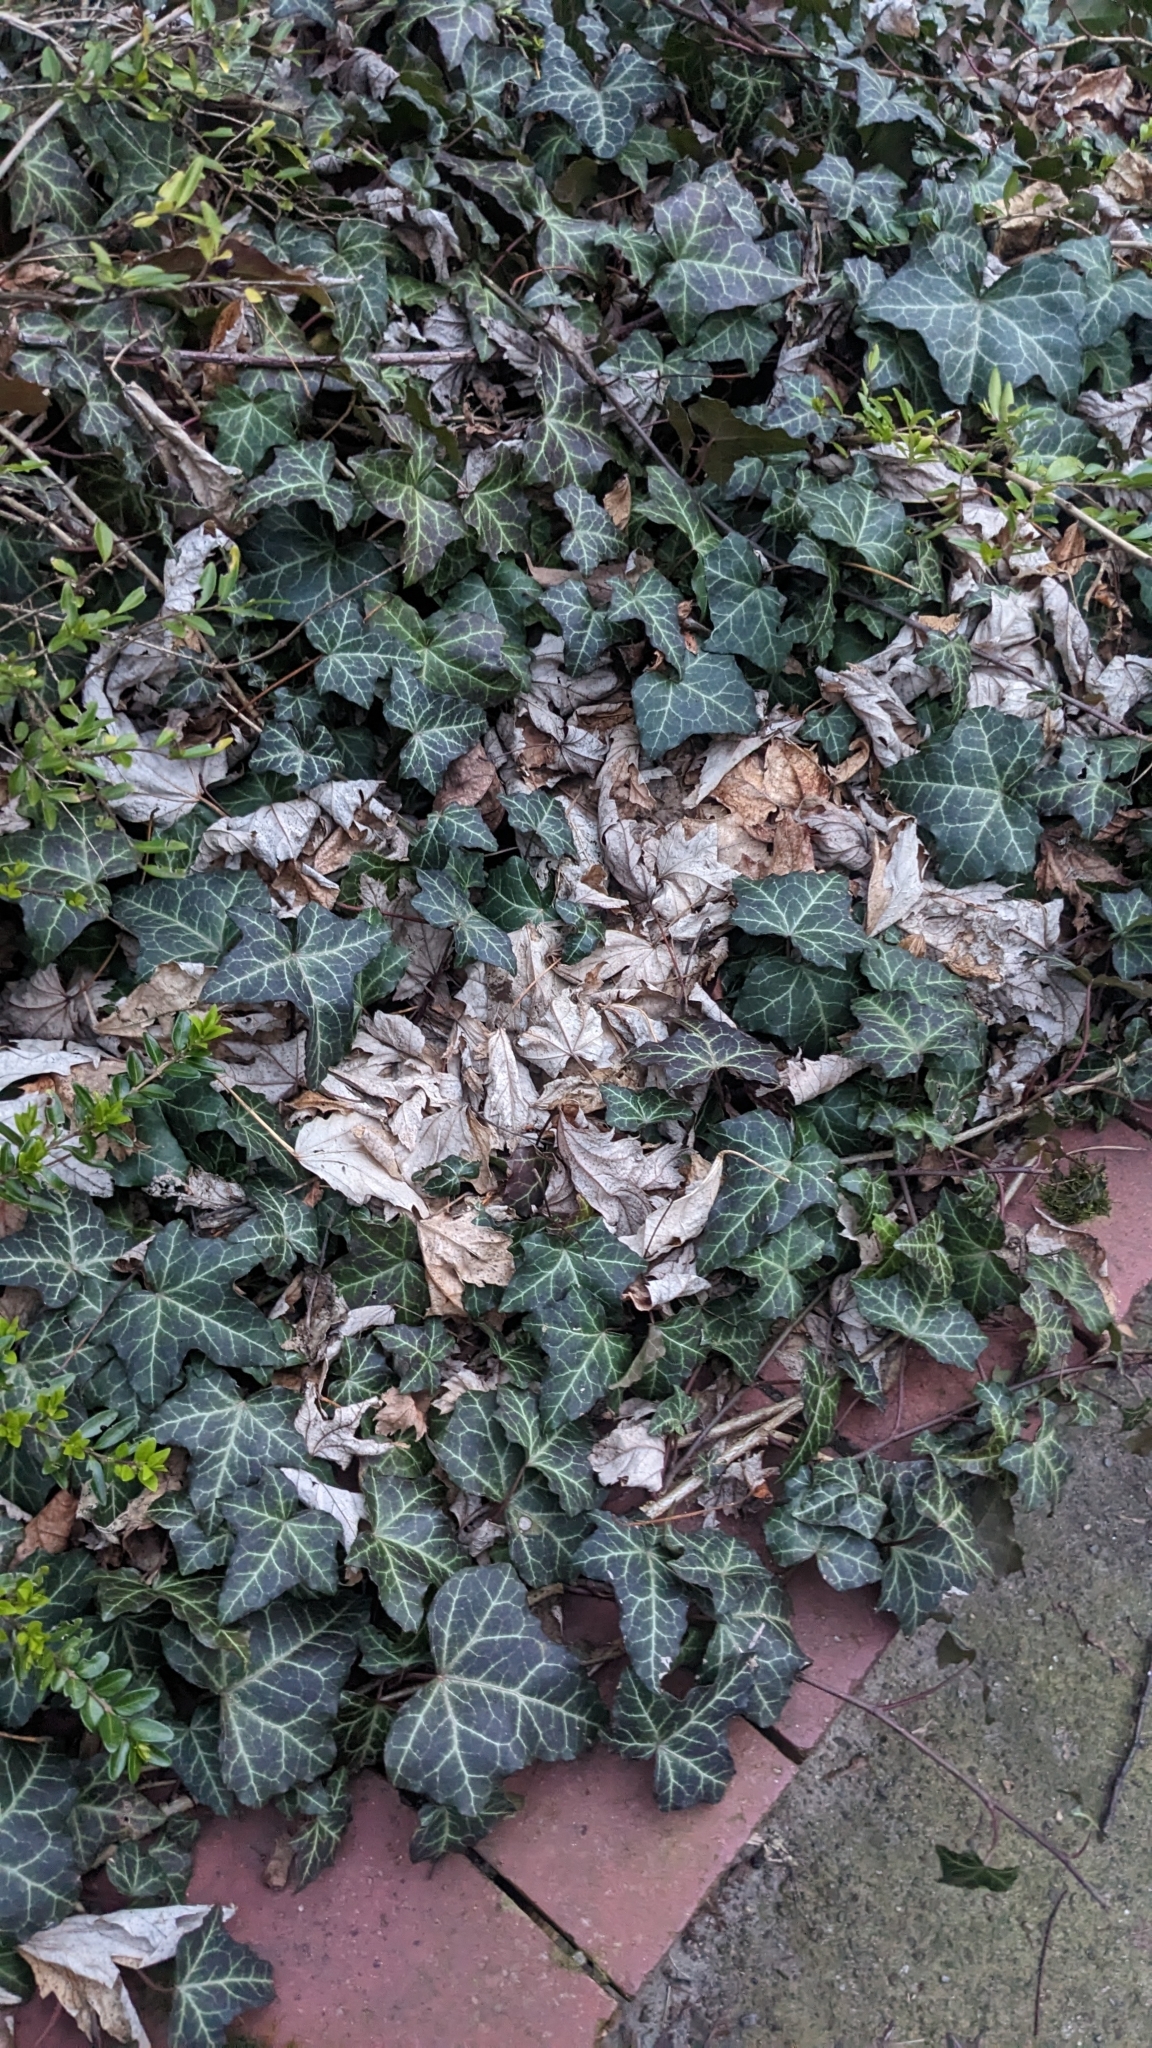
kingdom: Plantae
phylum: Tracheophyta
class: Magnoliopsida
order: Apiales
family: Araliaceae
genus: Hedera
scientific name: Hedera helix
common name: Ivy
